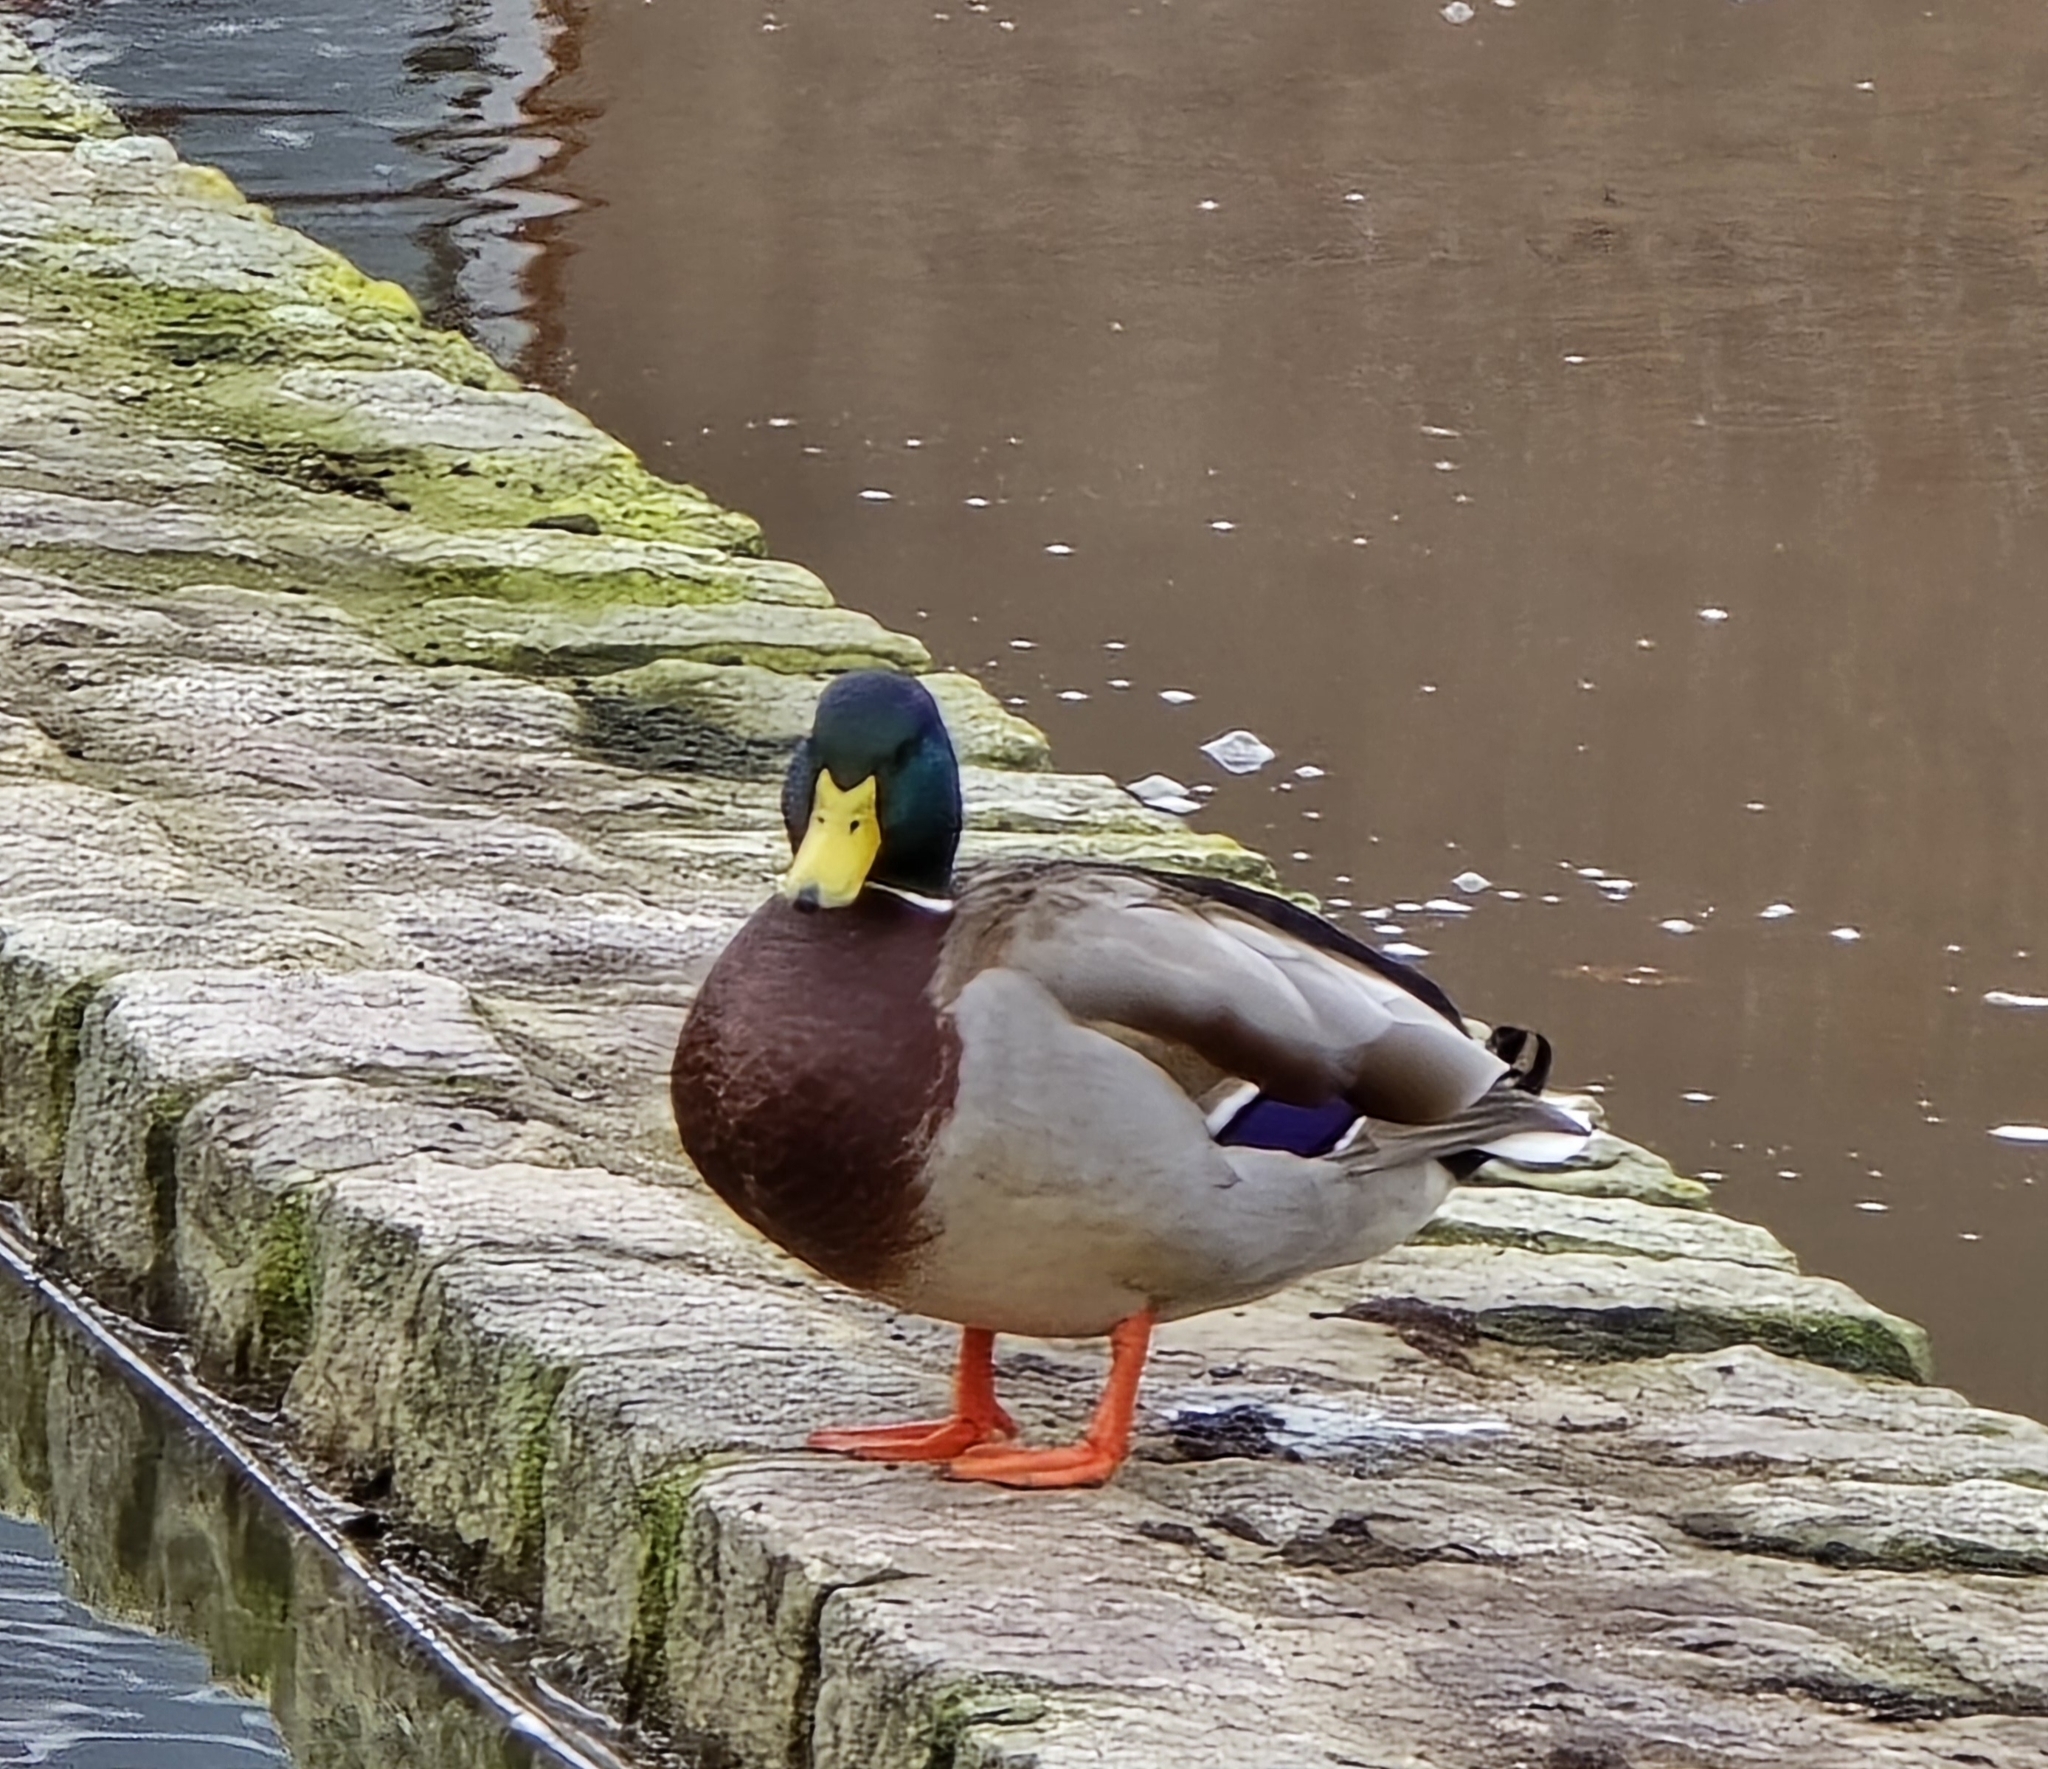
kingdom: Animalia
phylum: Chordata
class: Aves
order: Anseriformes
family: Anatidae
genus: Anas
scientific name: Anas platyrhynchos
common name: Mallard
